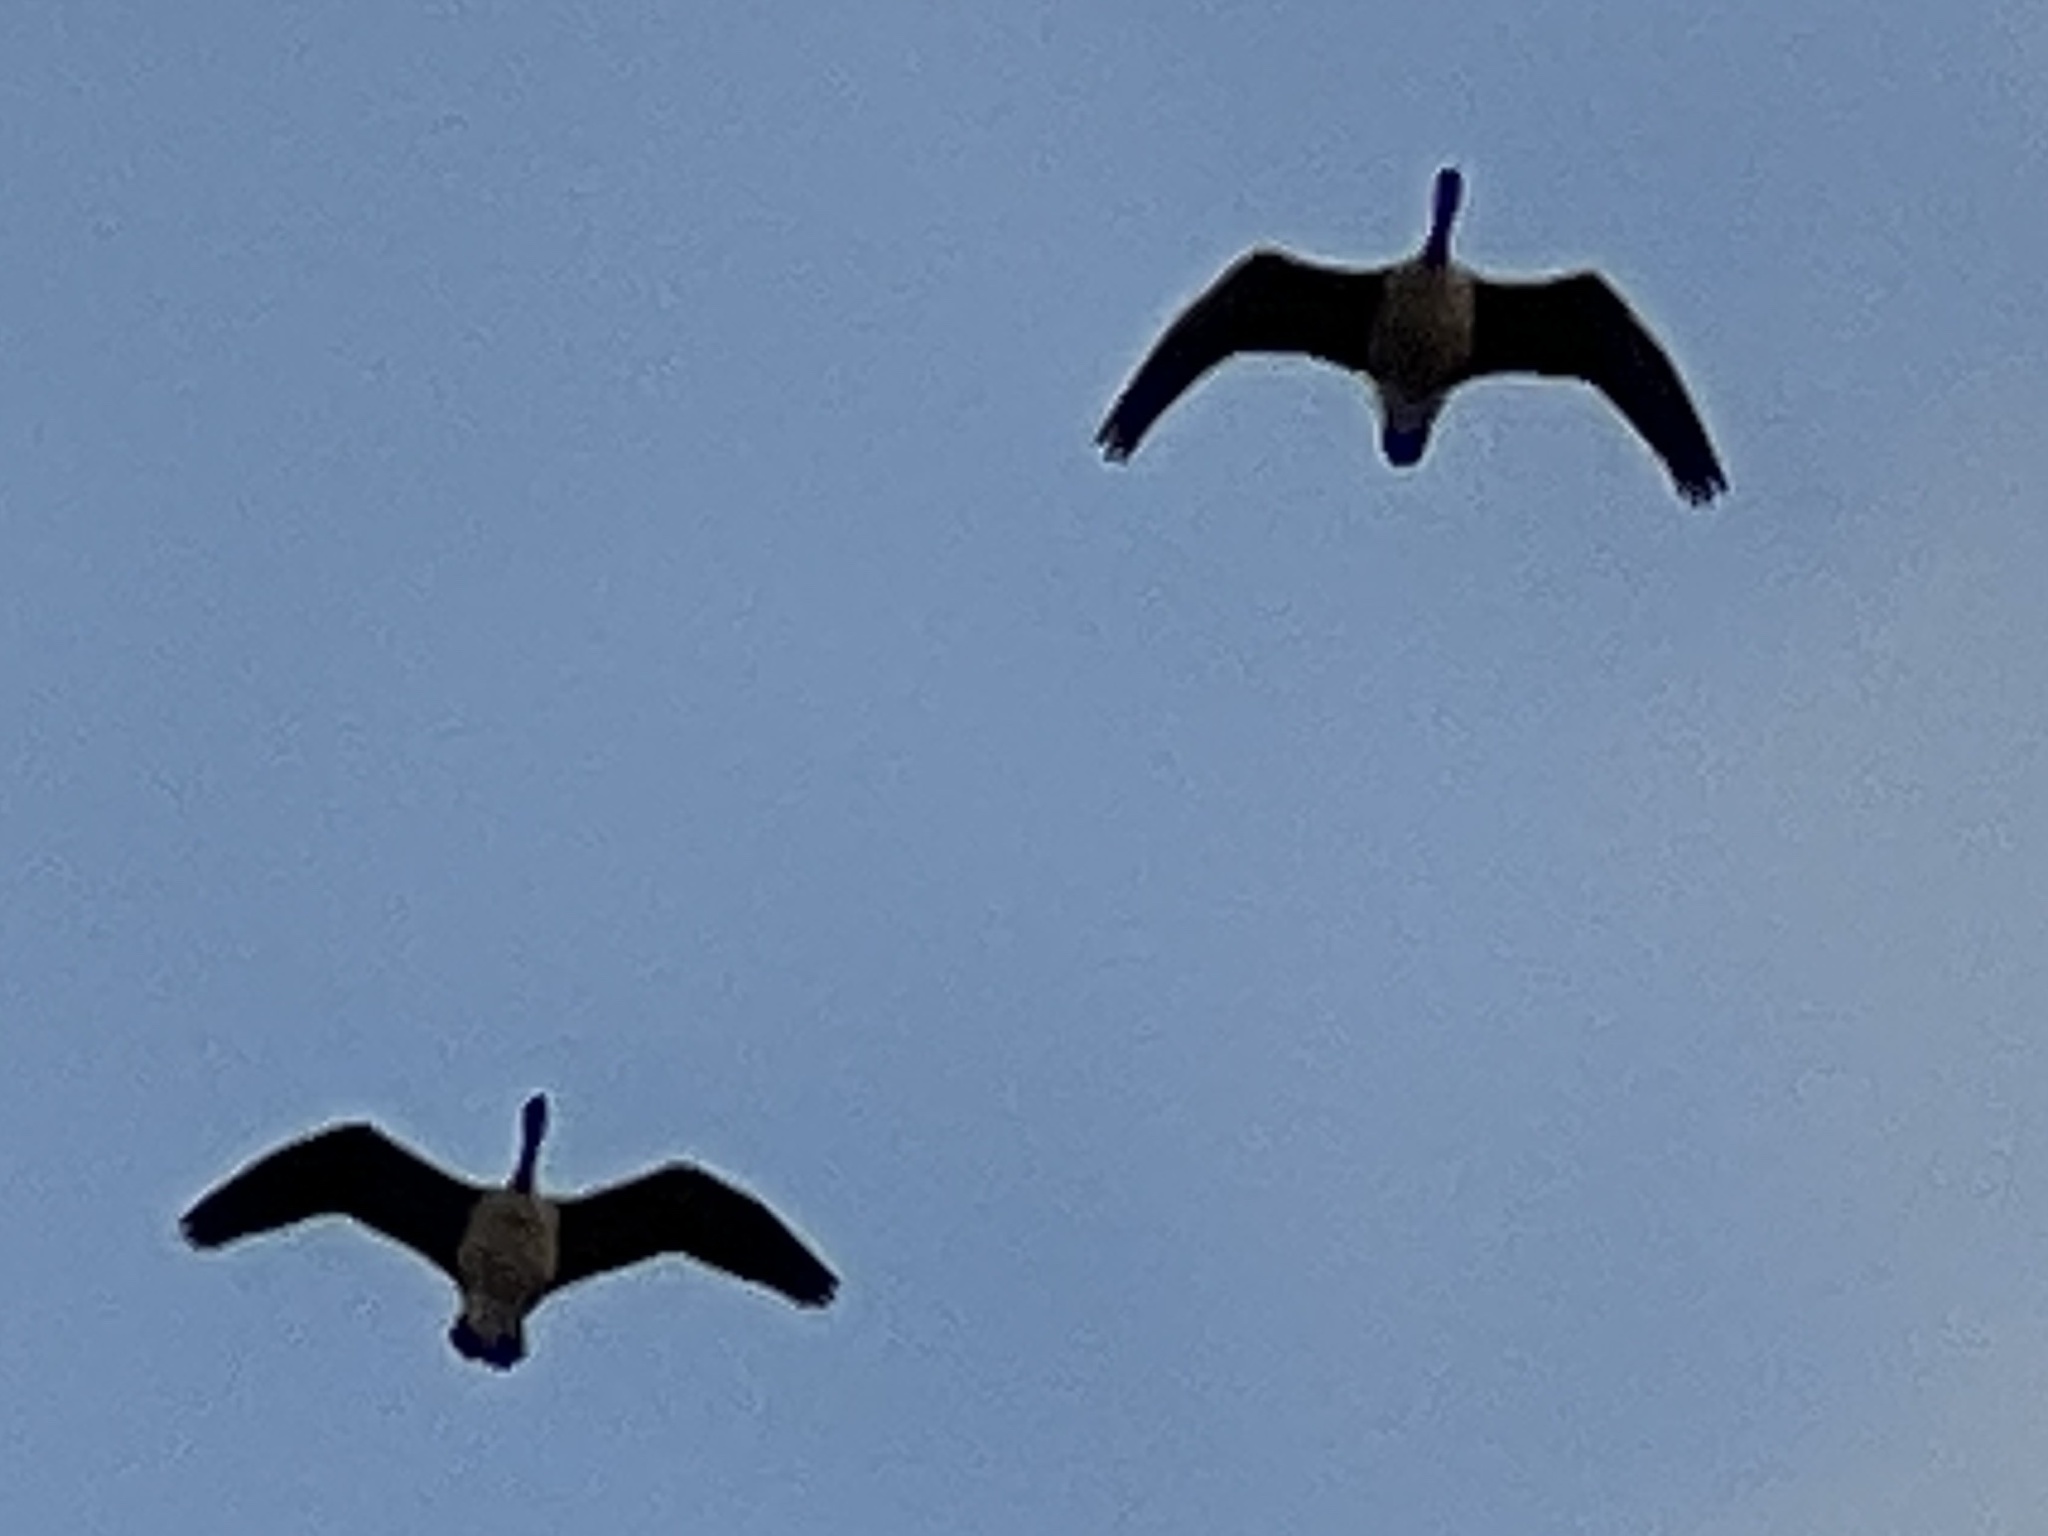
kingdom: Animalia
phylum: Chordata
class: Aves
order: Anseriformes
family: Anatidae
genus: Branta
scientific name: Branta canadensis
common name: Canada goose
